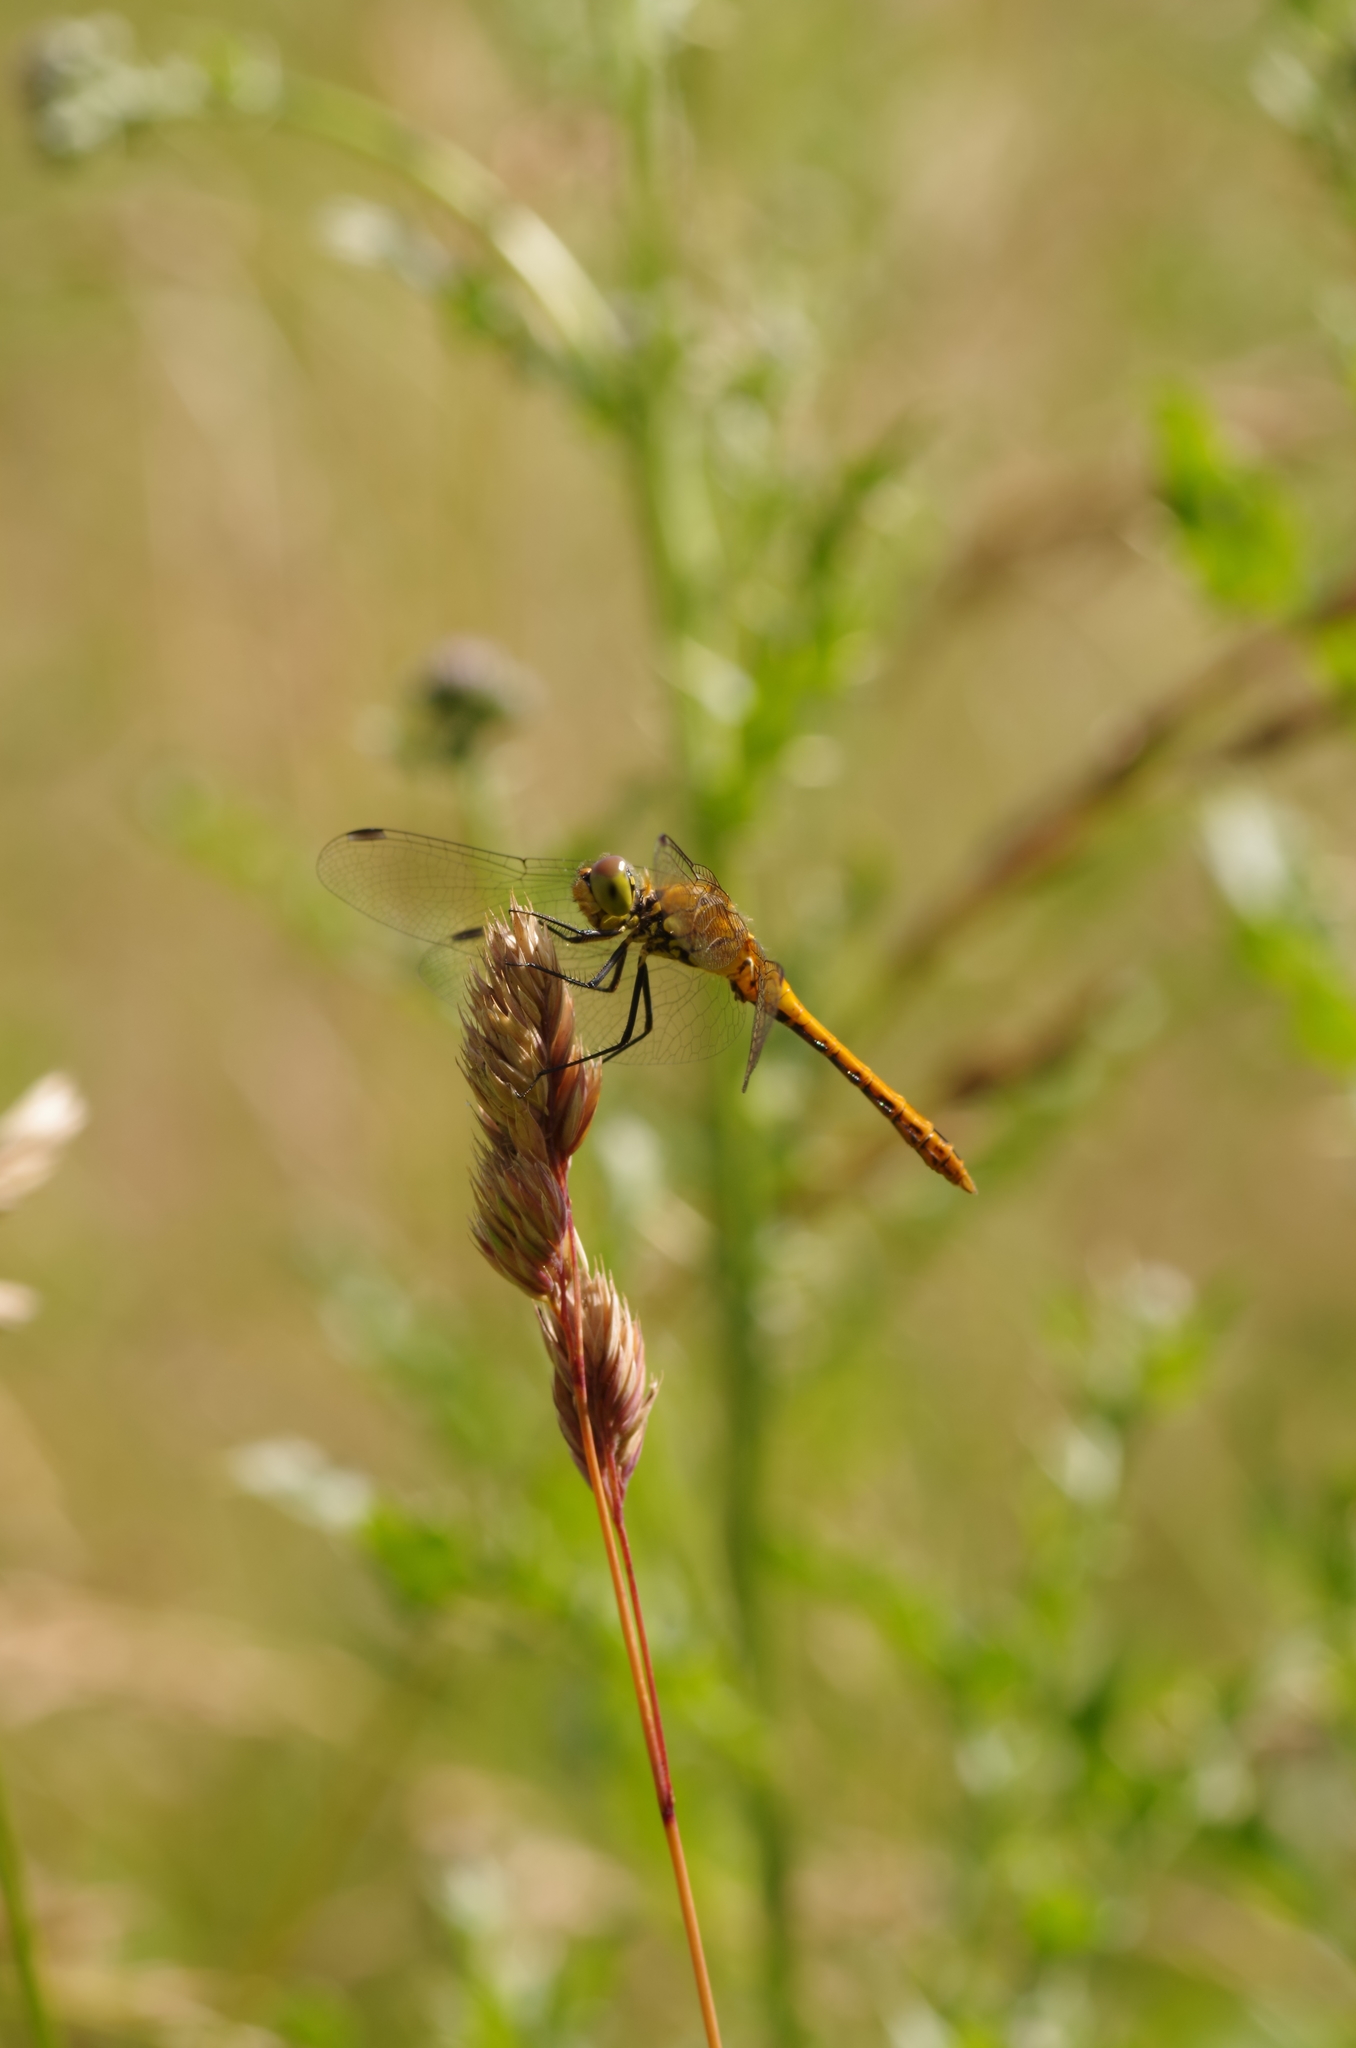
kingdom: Animalia
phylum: Arthropoda
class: Insecta
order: Odonata
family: Libellulidae
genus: Sympetrum
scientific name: Sympetrum sanguineum
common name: Ruddy darter
